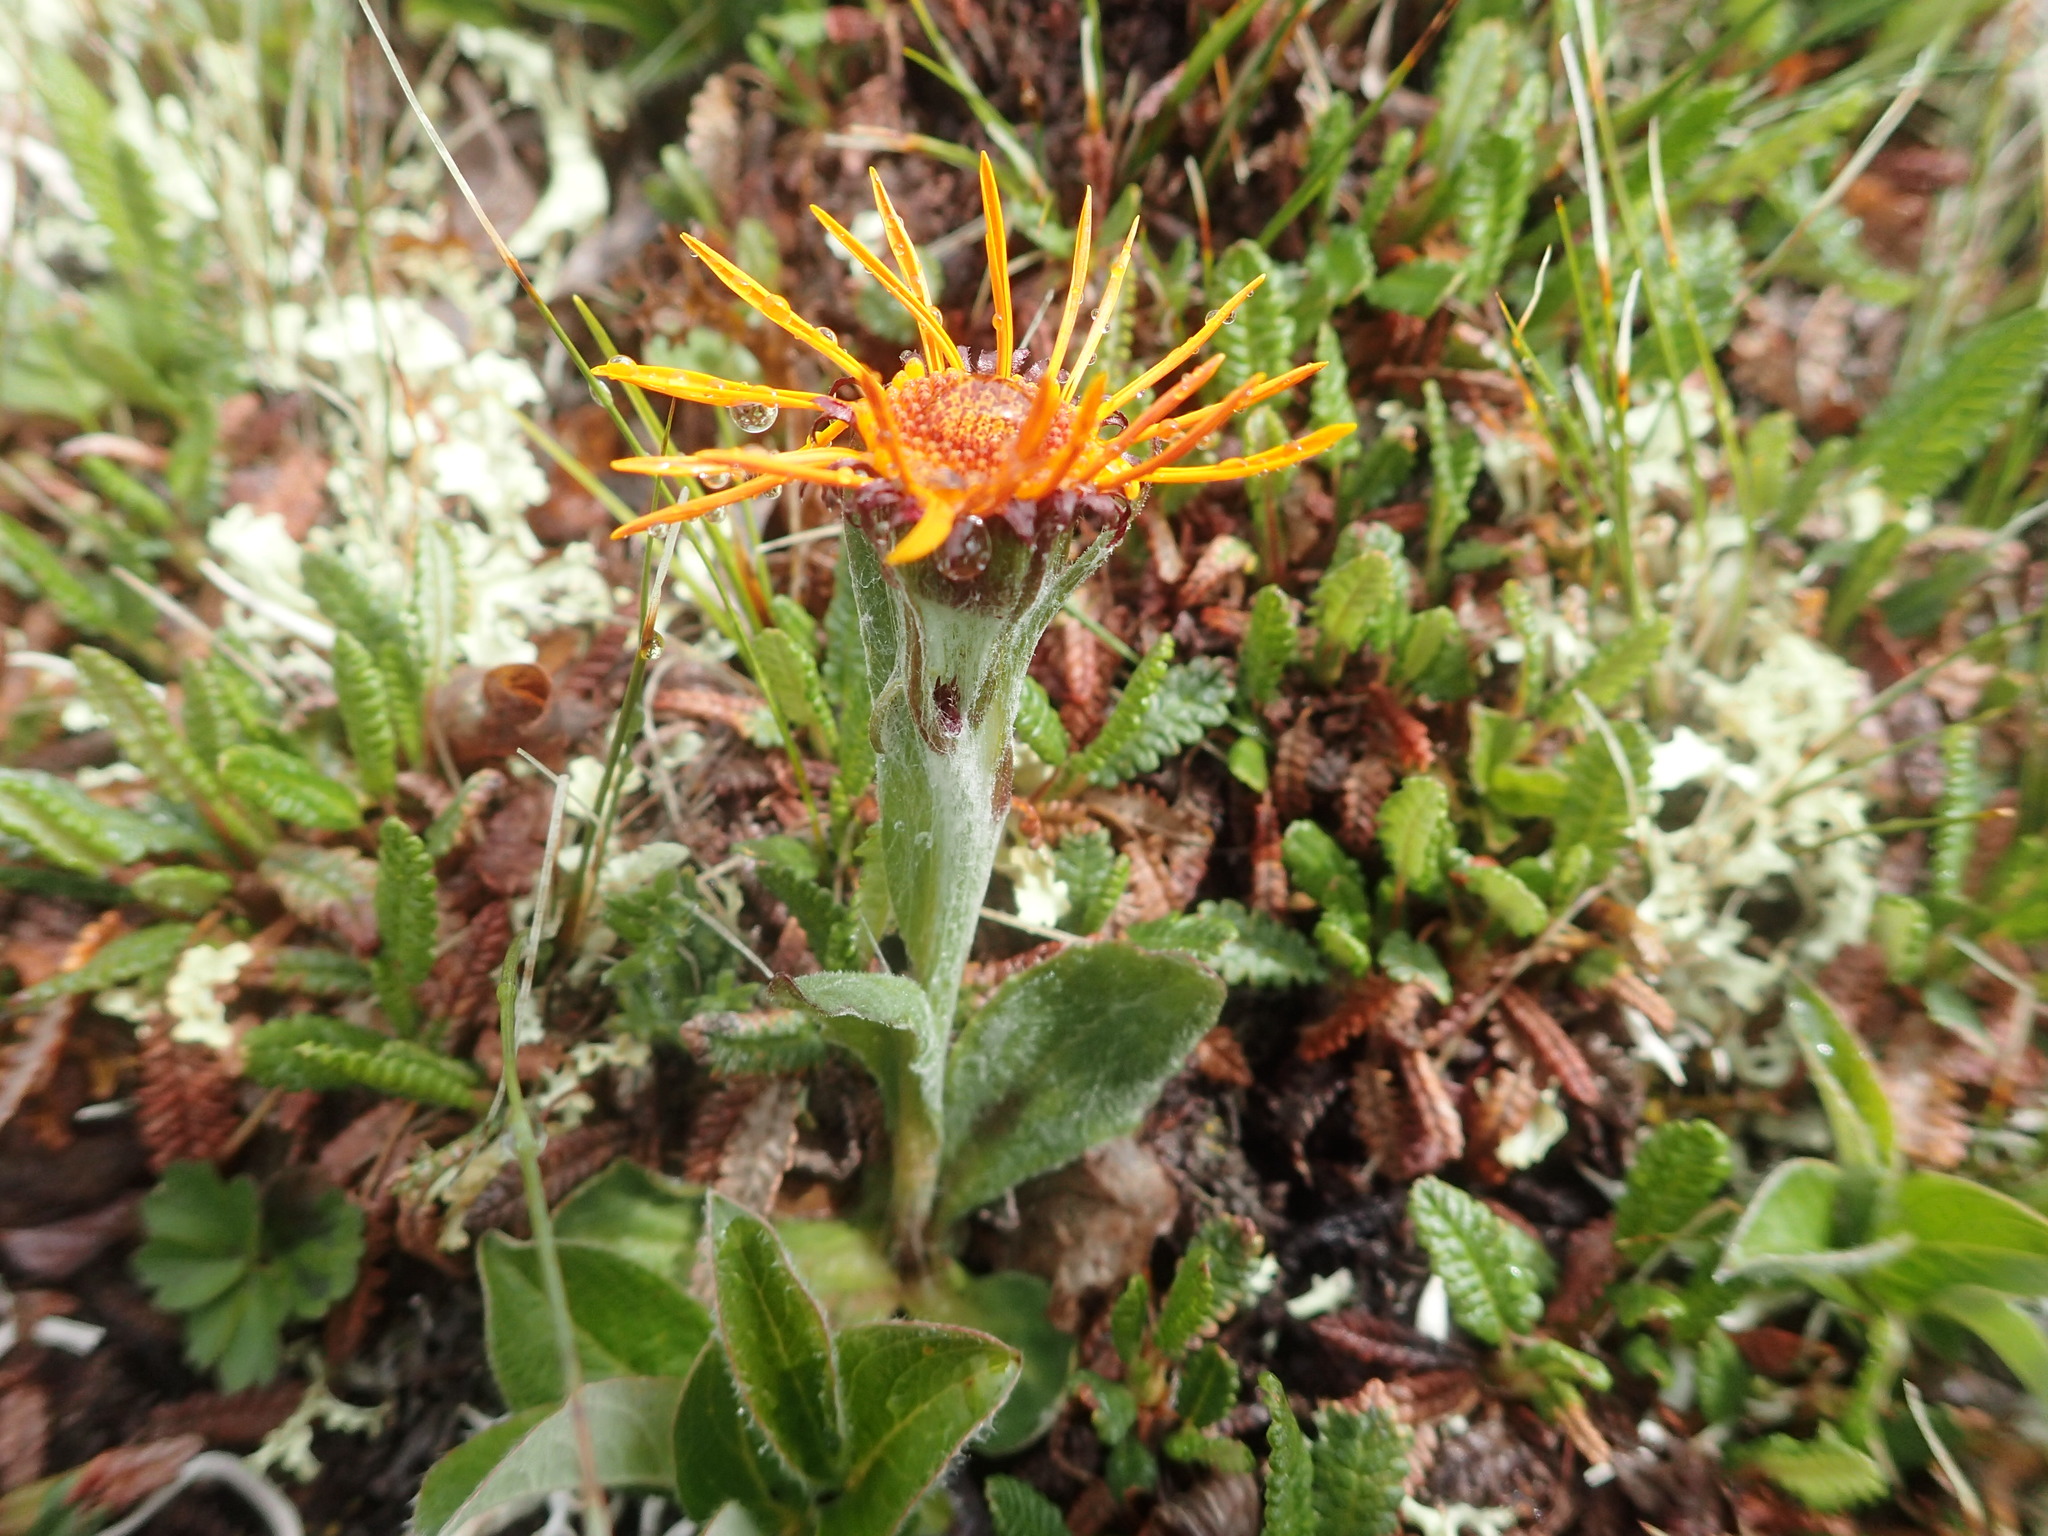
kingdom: Plantae
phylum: Tracheophyta
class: Magnoliopsida
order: Asterales
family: Asteraceae
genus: Tephroseris
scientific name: Tephroseris lindstroemii
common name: Lindström's groundsel
